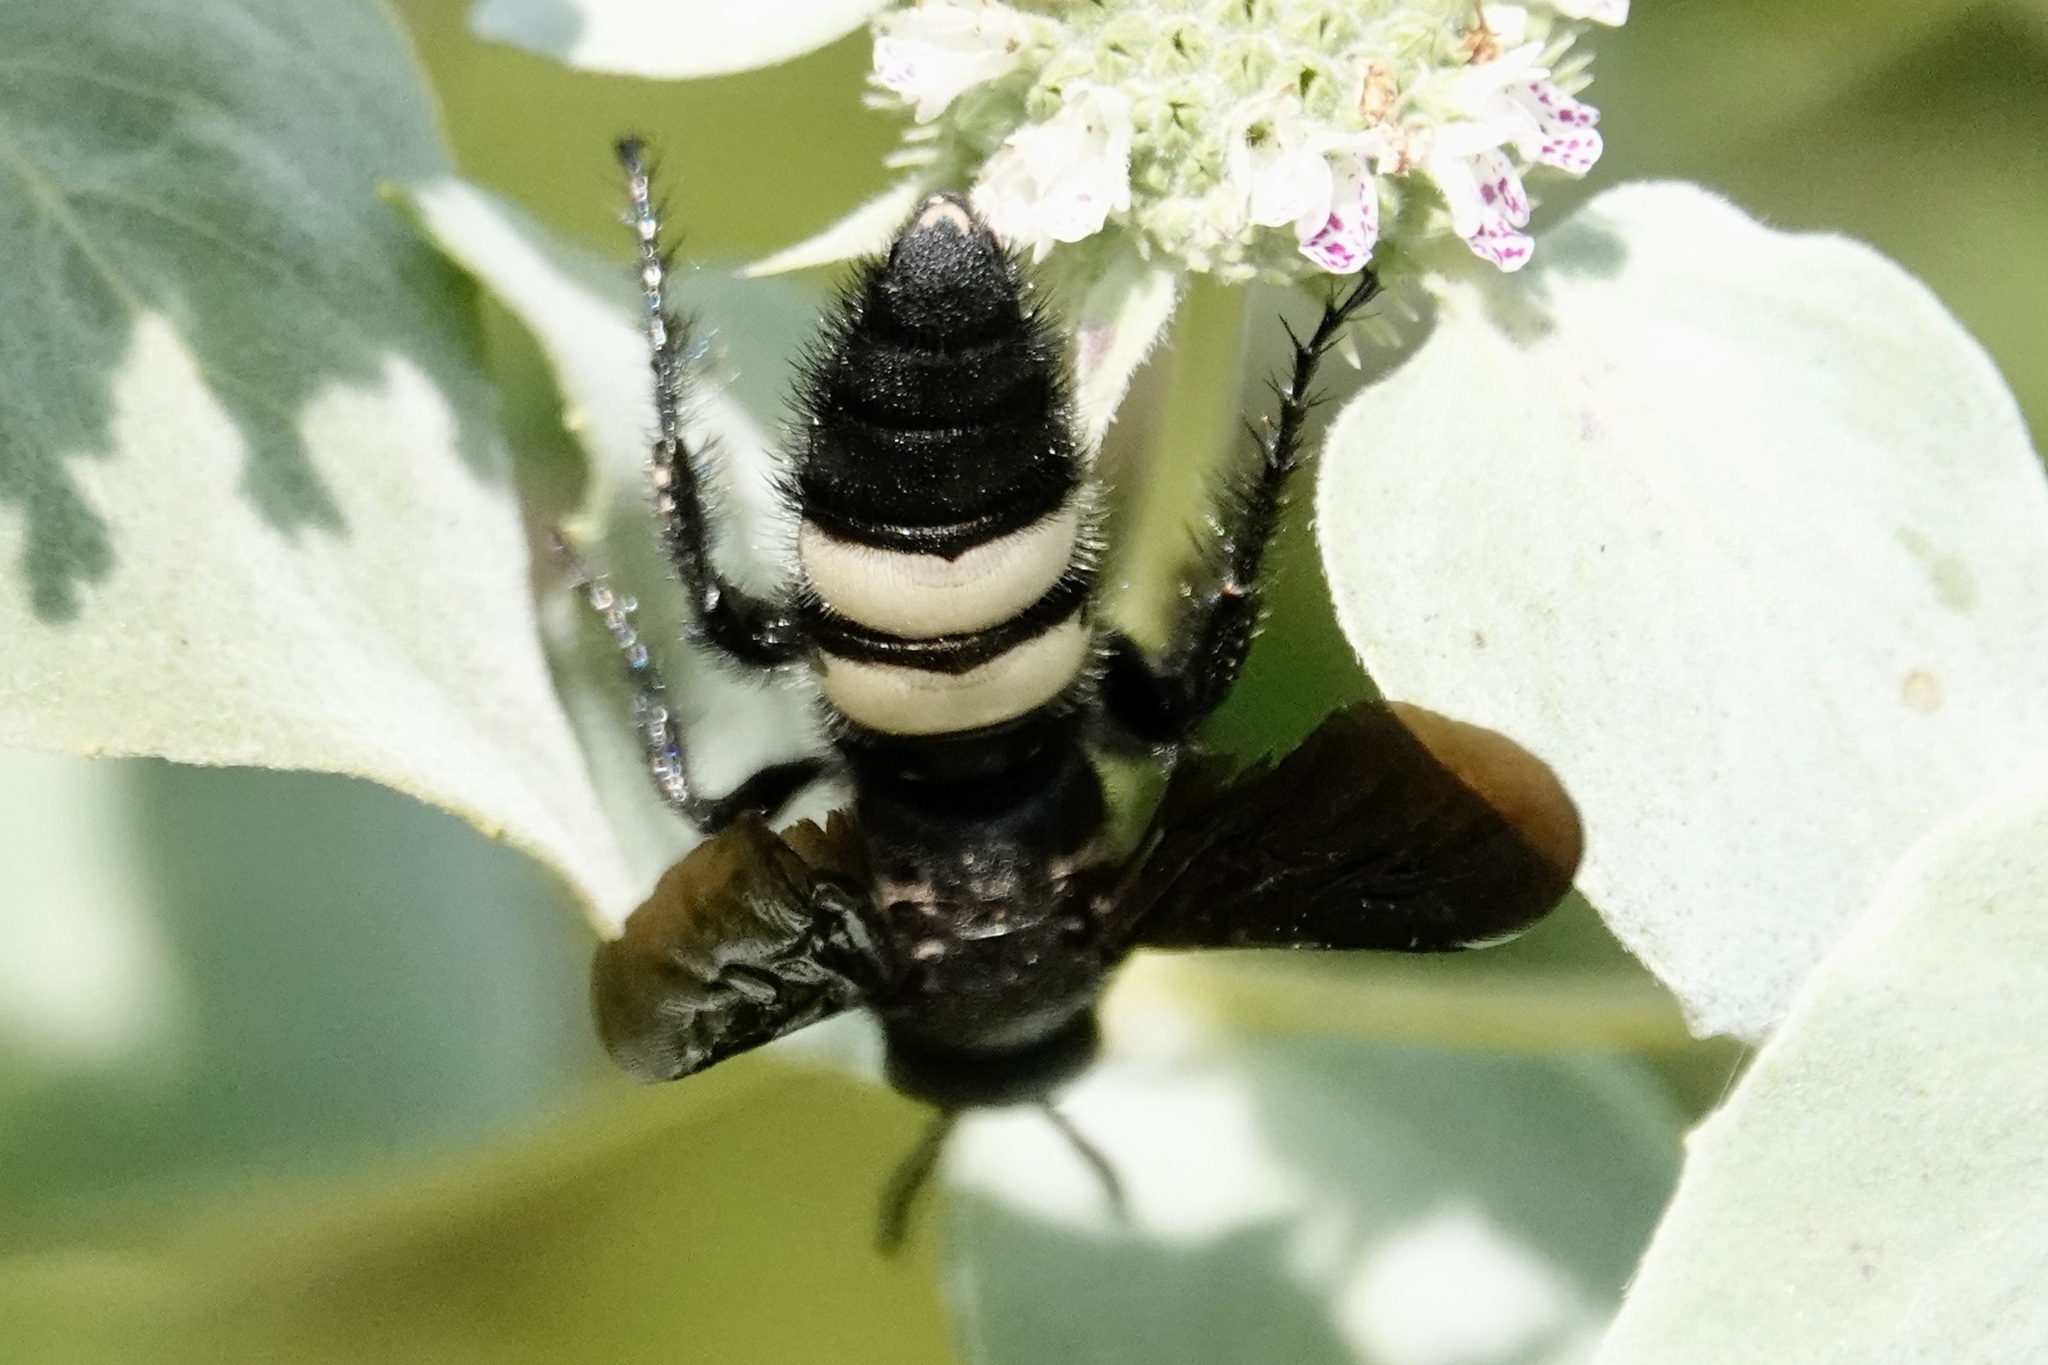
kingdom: Animalia
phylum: Arthropoda
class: Insecta
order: Hymenoptera
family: Scoliidae
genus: Scolia
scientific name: Scolia bicincta
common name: Double-banded scoliid wasp
